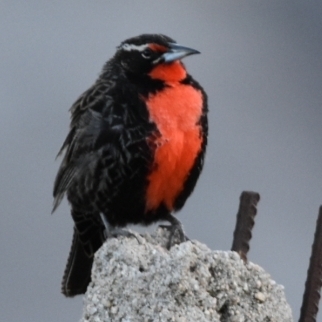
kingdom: Animalia
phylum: Chordata
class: Aves
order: Passeriformes
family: Icteridae
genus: Sturnella
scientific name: Sturnella loyca
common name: Long-tailed meadowlark
